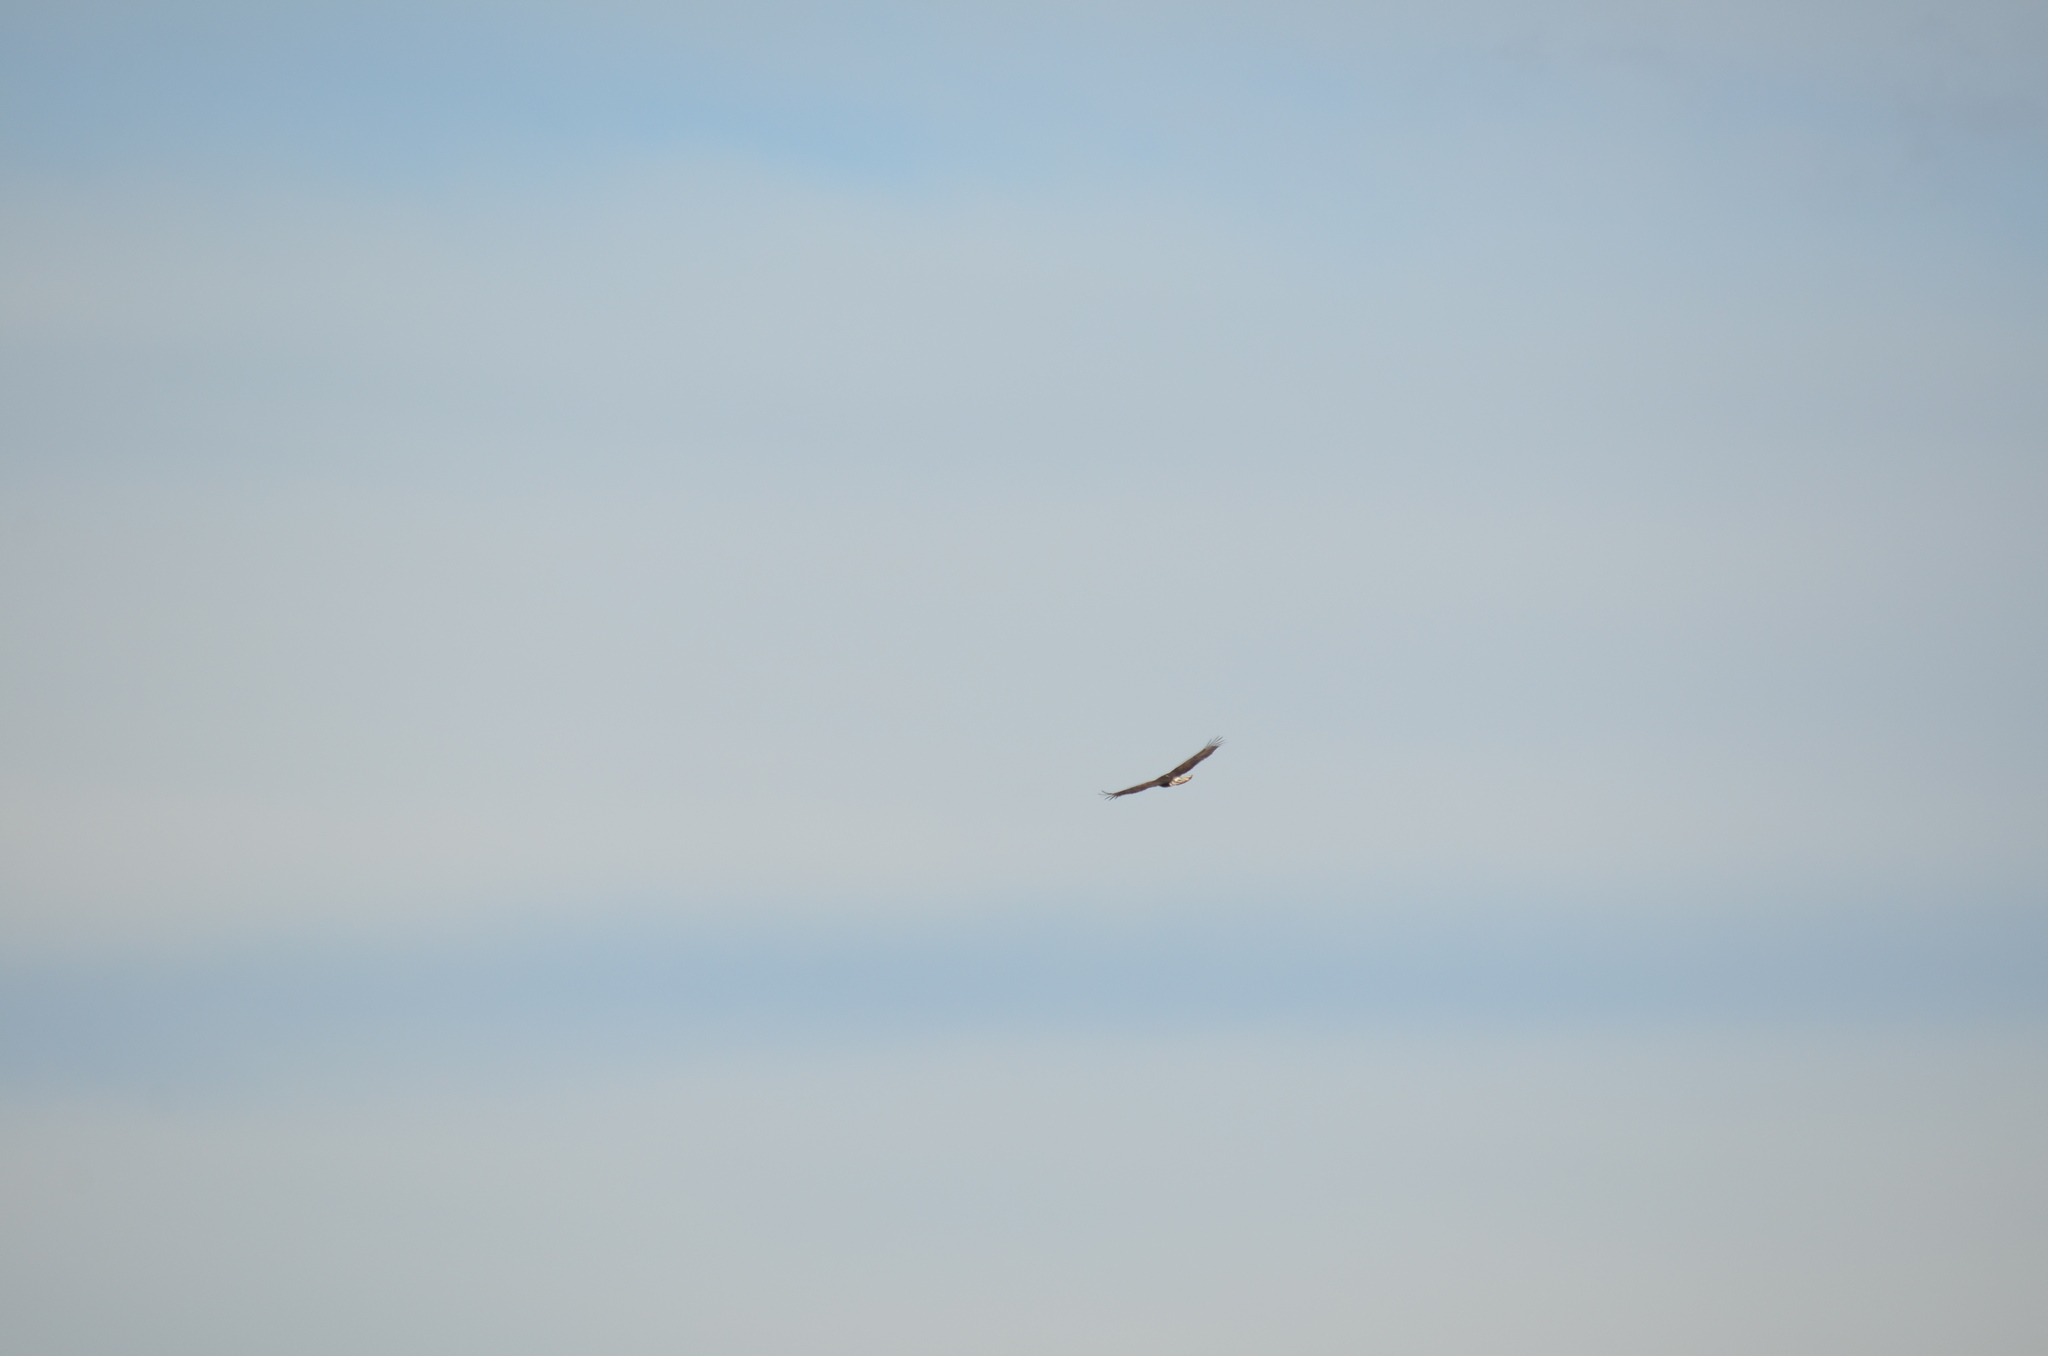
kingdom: Animalia
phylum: Chordata
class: Aves
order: Accipitriformes
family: Accipitridae
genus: Haliaeetus
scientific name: Haliaeetus leucocephalus
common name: Bald eagle
